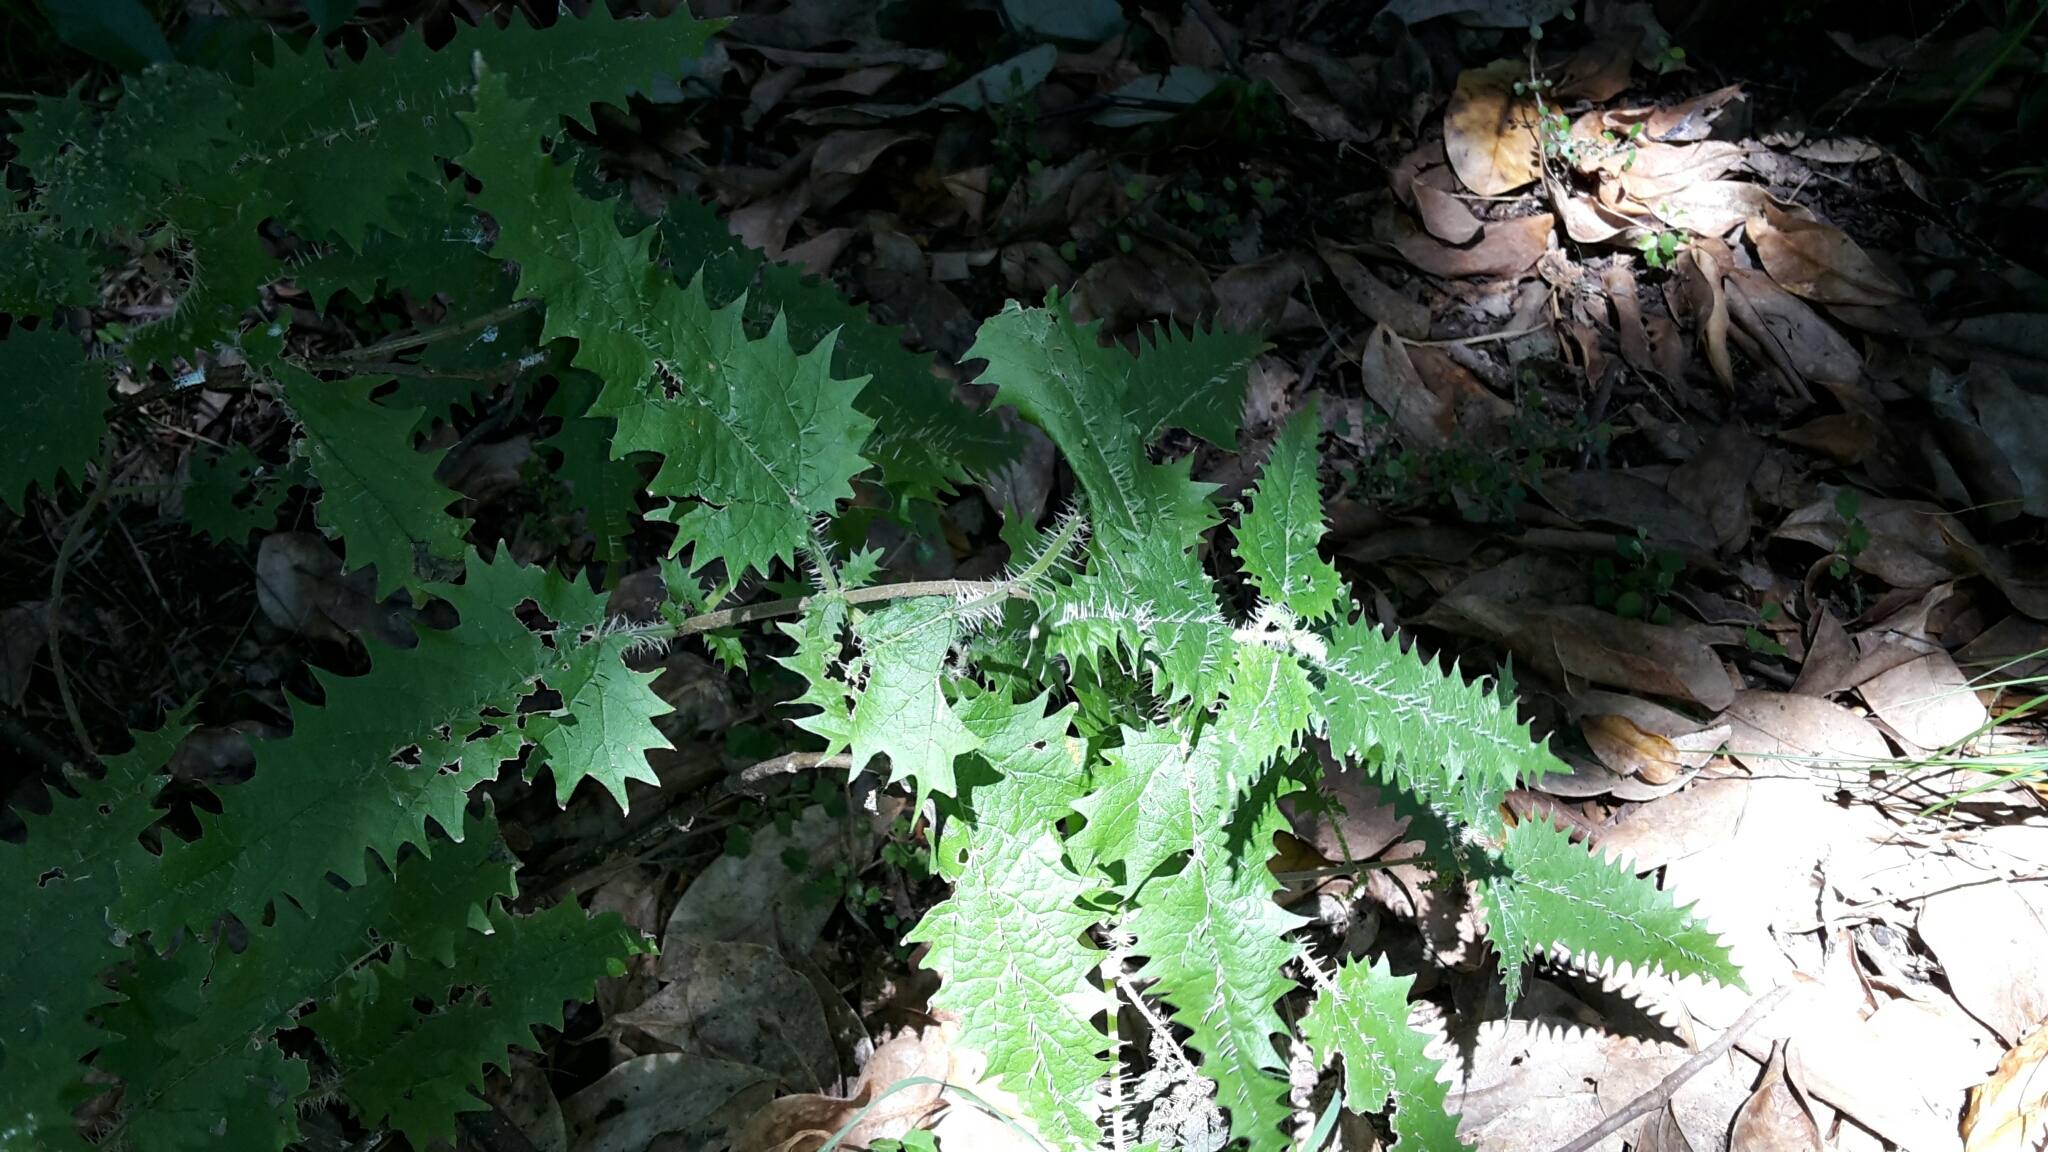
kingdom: Plantae
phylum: Tracheophyta
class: Magnoliopsida
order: Rosales
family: Urticaceae
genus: Urtica
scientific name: Urtica ferox
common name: Tree nettle
